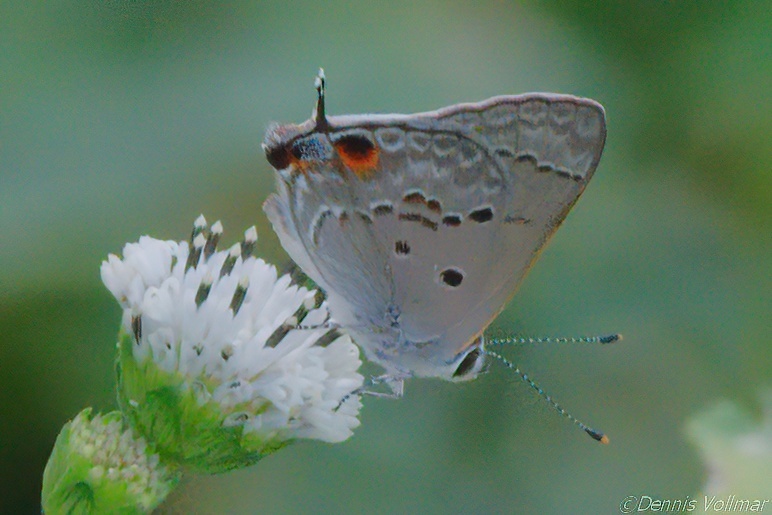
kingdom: Animalia
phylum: Arthropoda
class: Insecta
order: Lepidoptera
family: Lycaenidae
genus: Callicista
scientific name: Callicista columella
